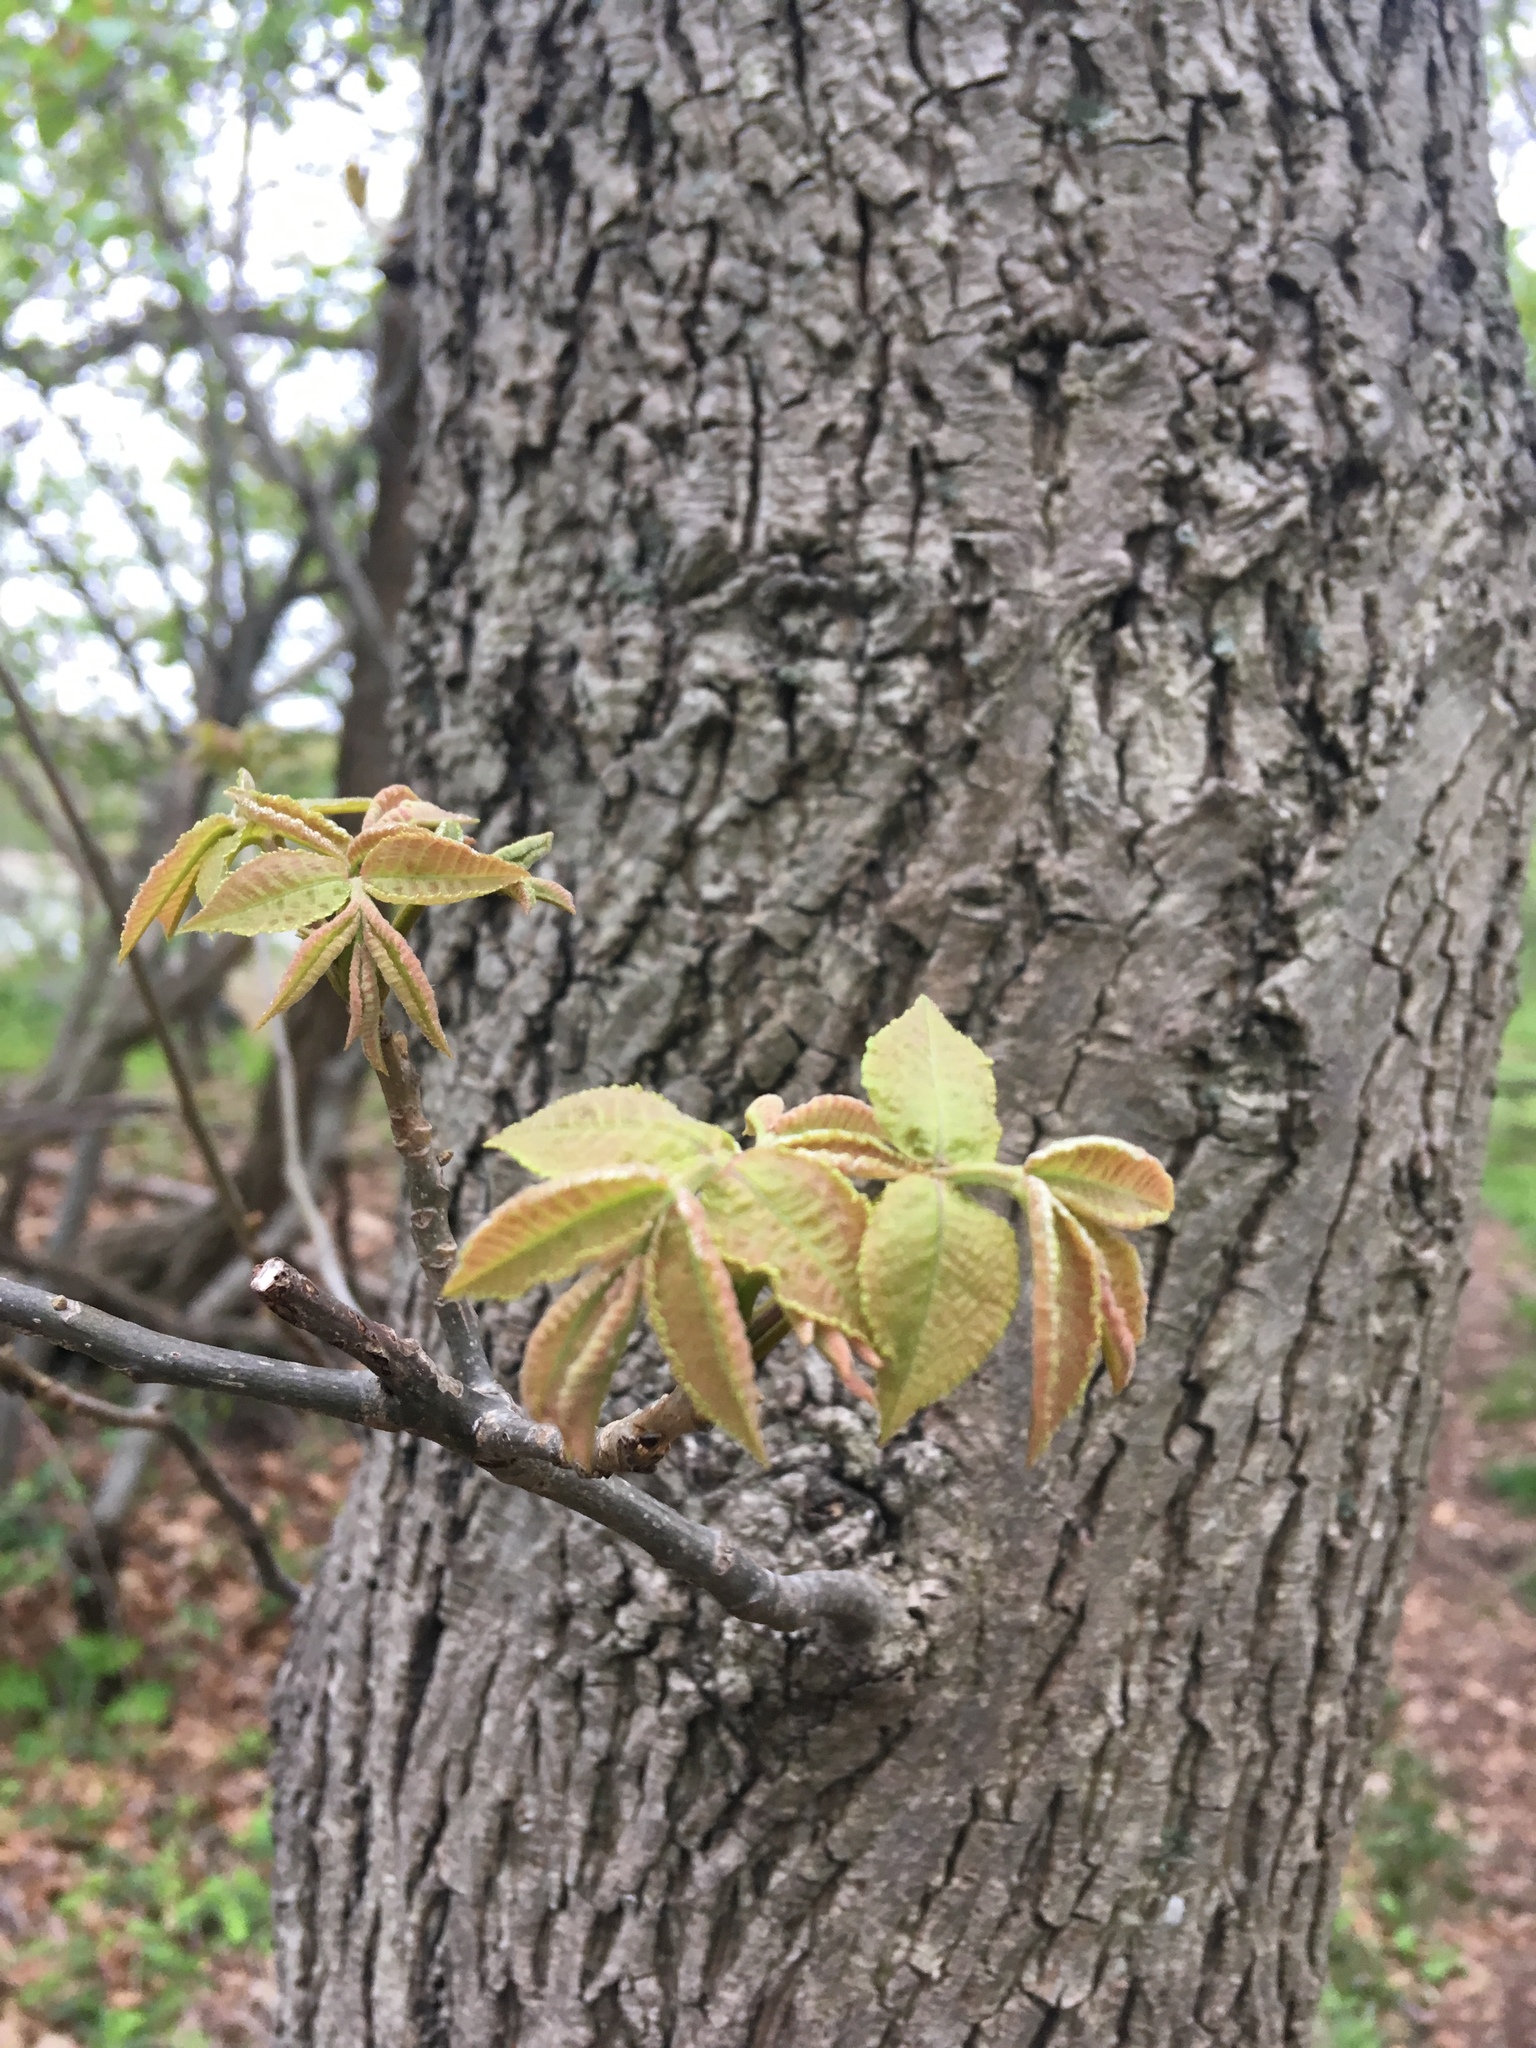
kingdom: Plantae
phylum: Tracheophyta
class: Magnoliopsida
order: Fagales
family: Juglandaceae
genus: Carya
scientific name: Carya glabra
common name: Pignut hickory
